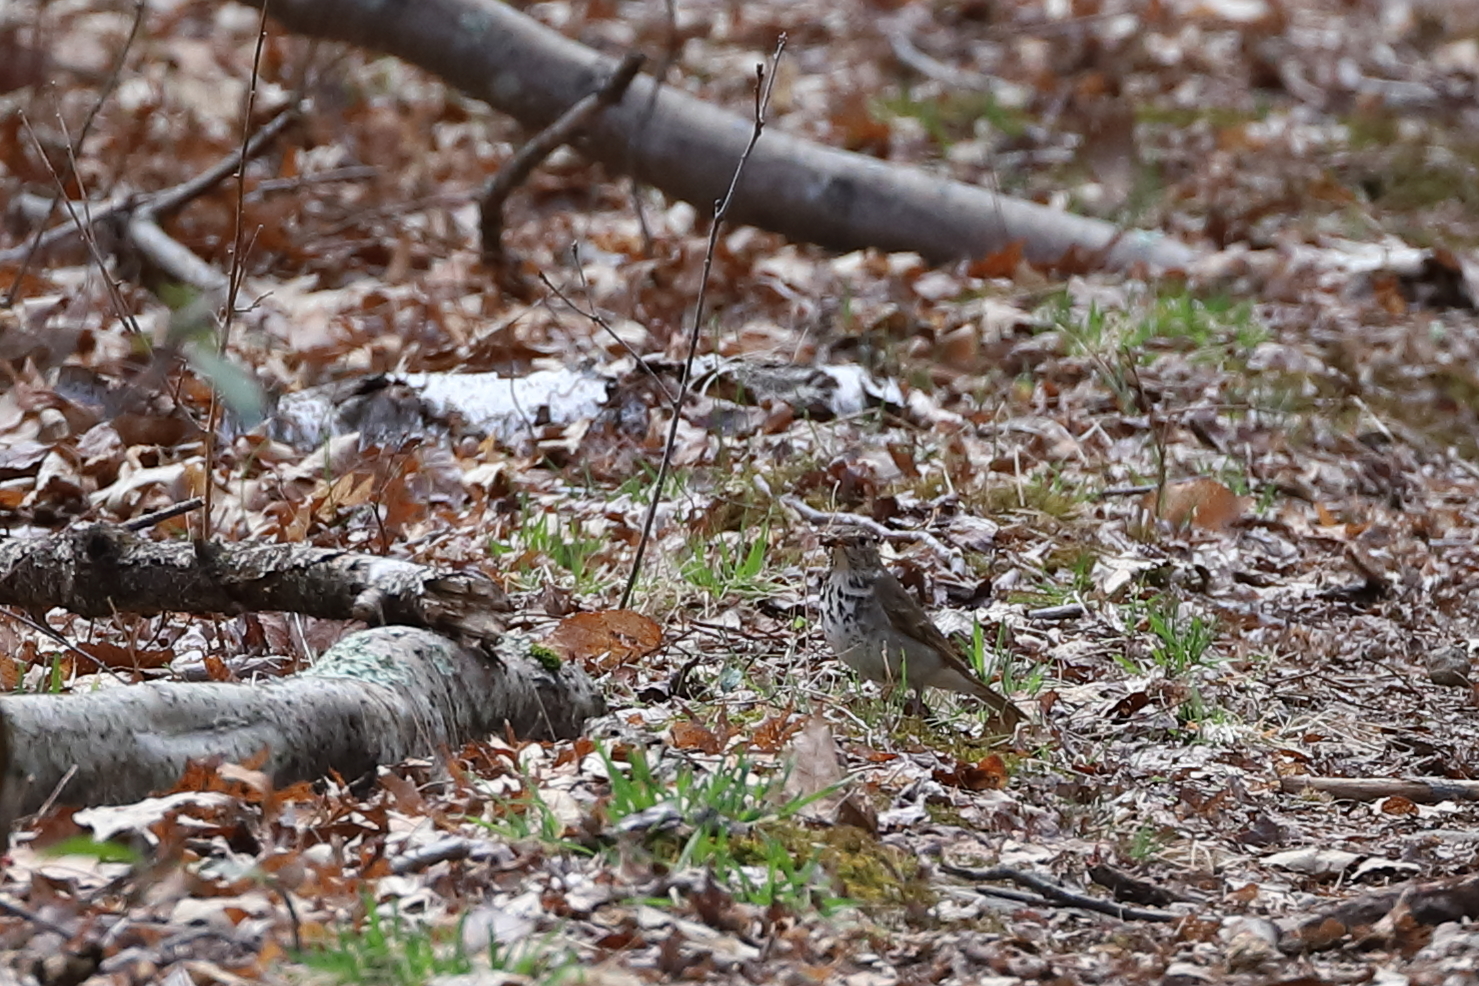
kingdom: Animalia
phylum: Chordata
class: Aves
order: Passeriformes
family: Turdidae
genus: Catharus
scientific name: Catharus guttatus
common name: Hermit thrush
